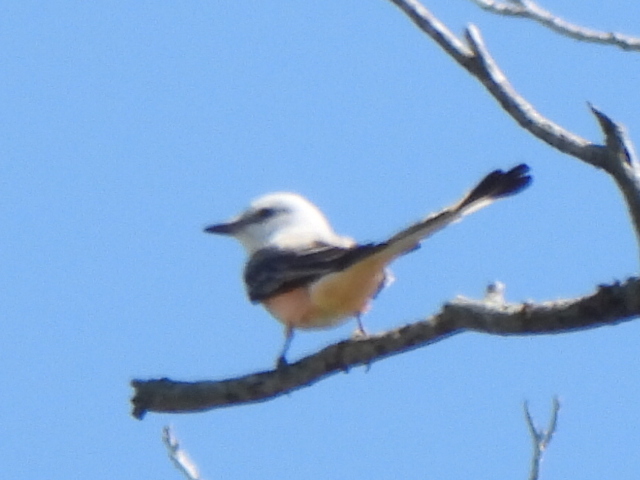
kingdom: Animalia
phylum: Chordata
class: Aves
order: Passeriformes
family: Tyrannidae
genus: Tyrannus
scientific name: Tyrannus forficatus
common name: Scissor-tailed flycatcher
